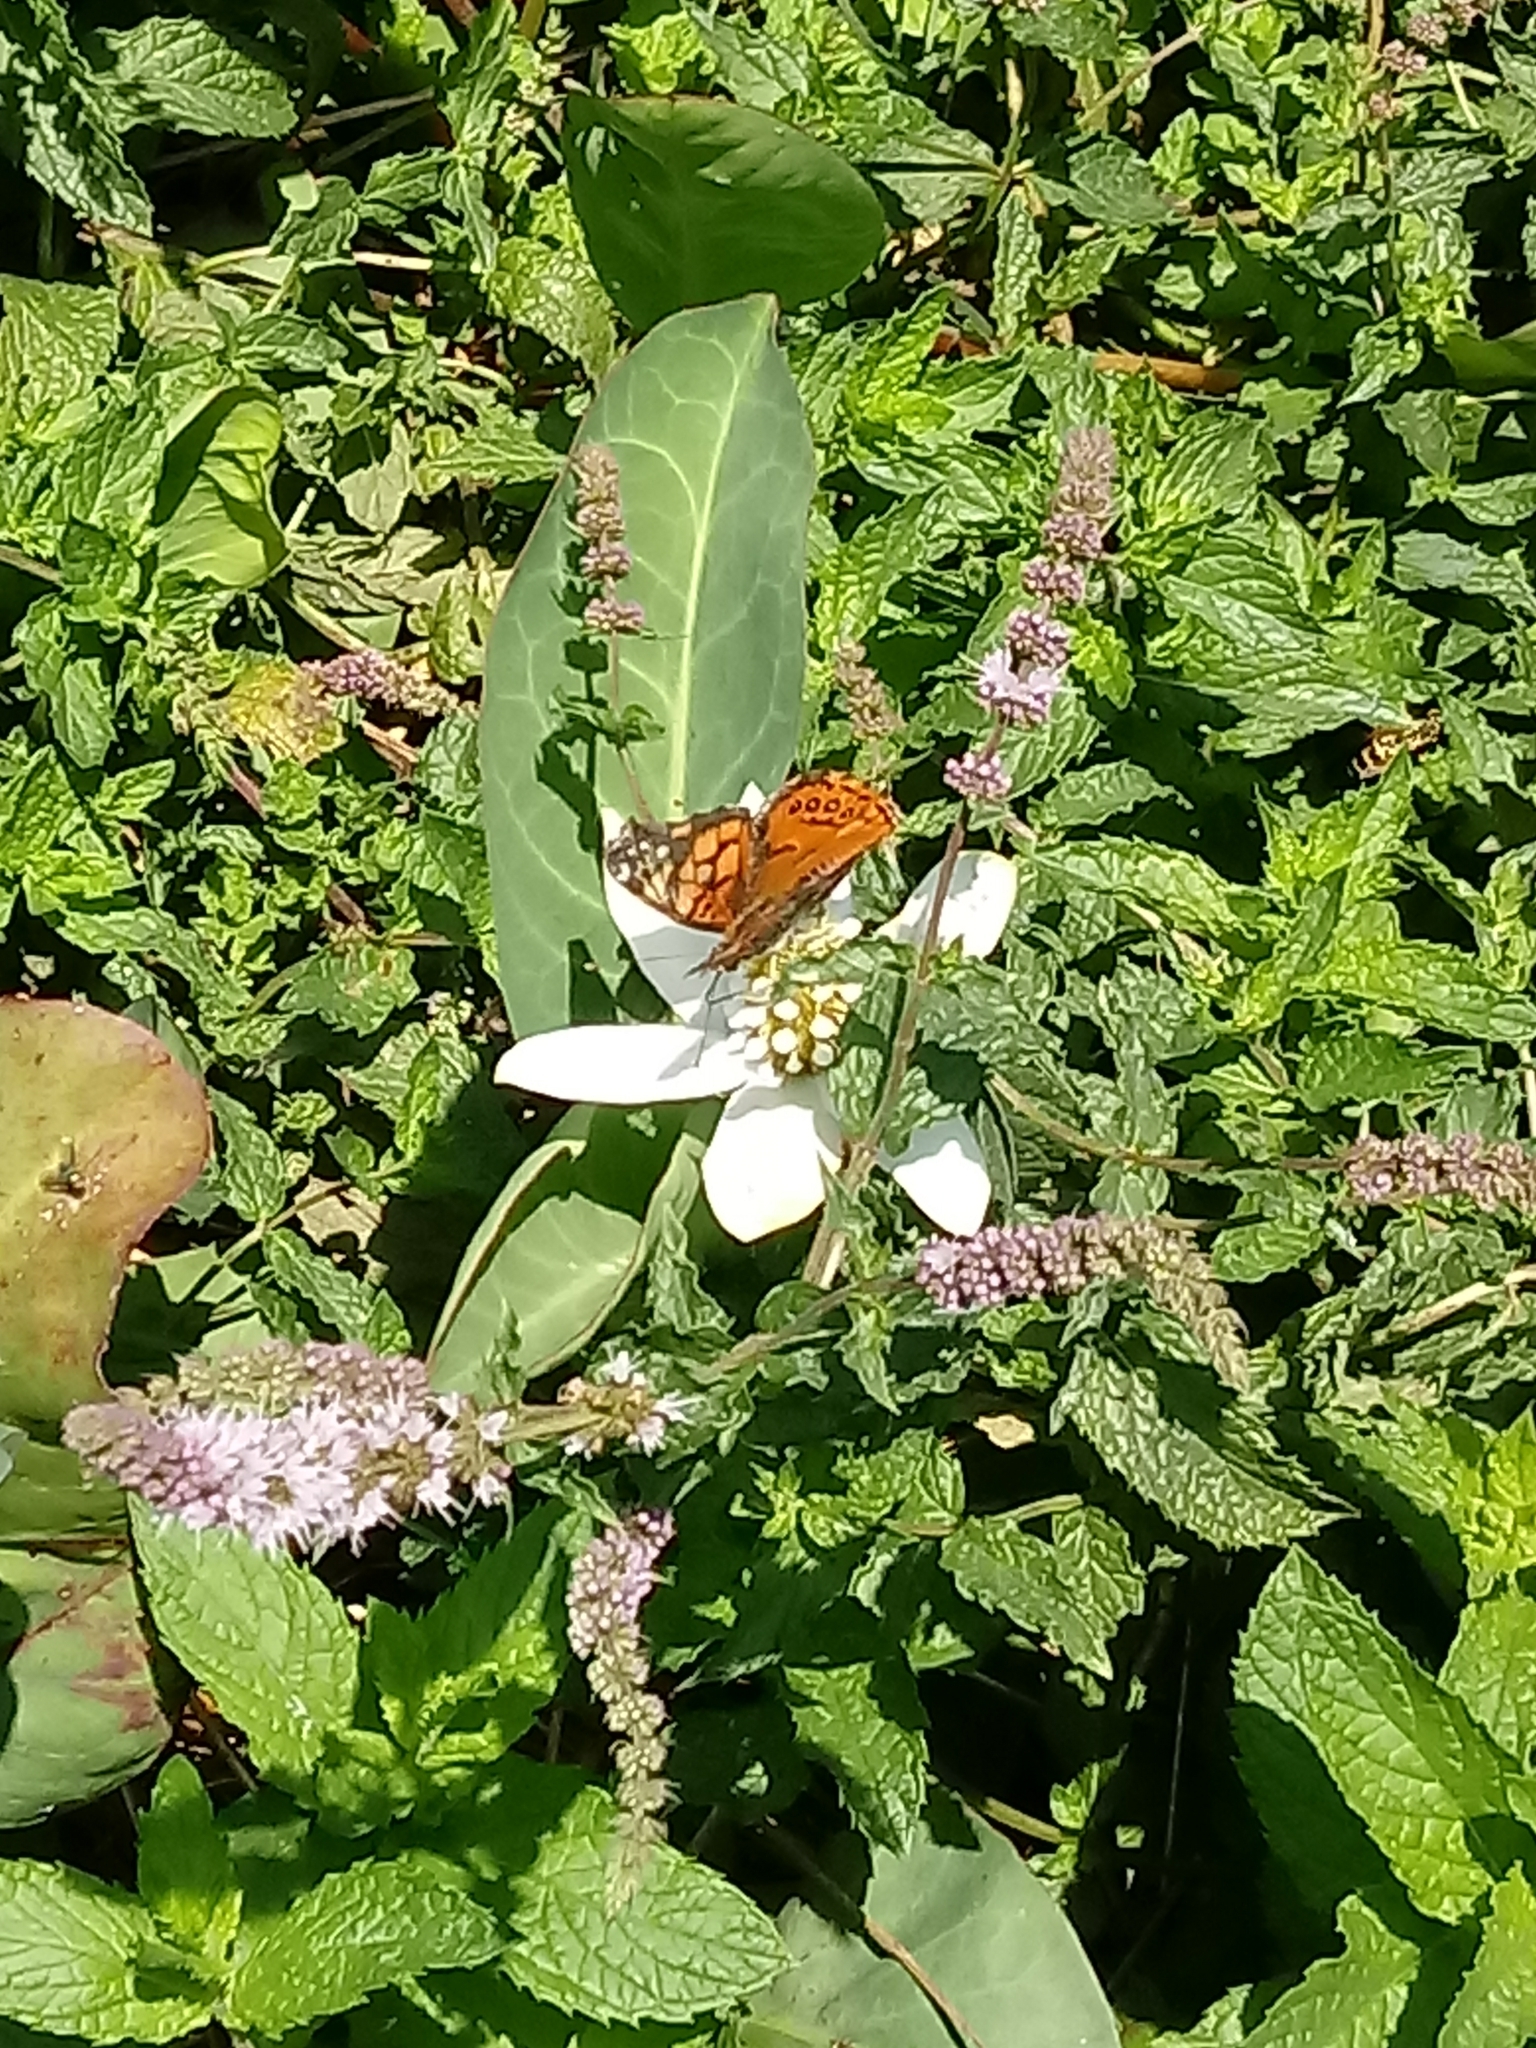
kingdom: Animalia
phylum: Arthropoda
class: Insecta
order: Lepidoptera
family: Nymphalidae
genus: Vanessa
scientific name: Vanessa annabella
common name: West coast lady
